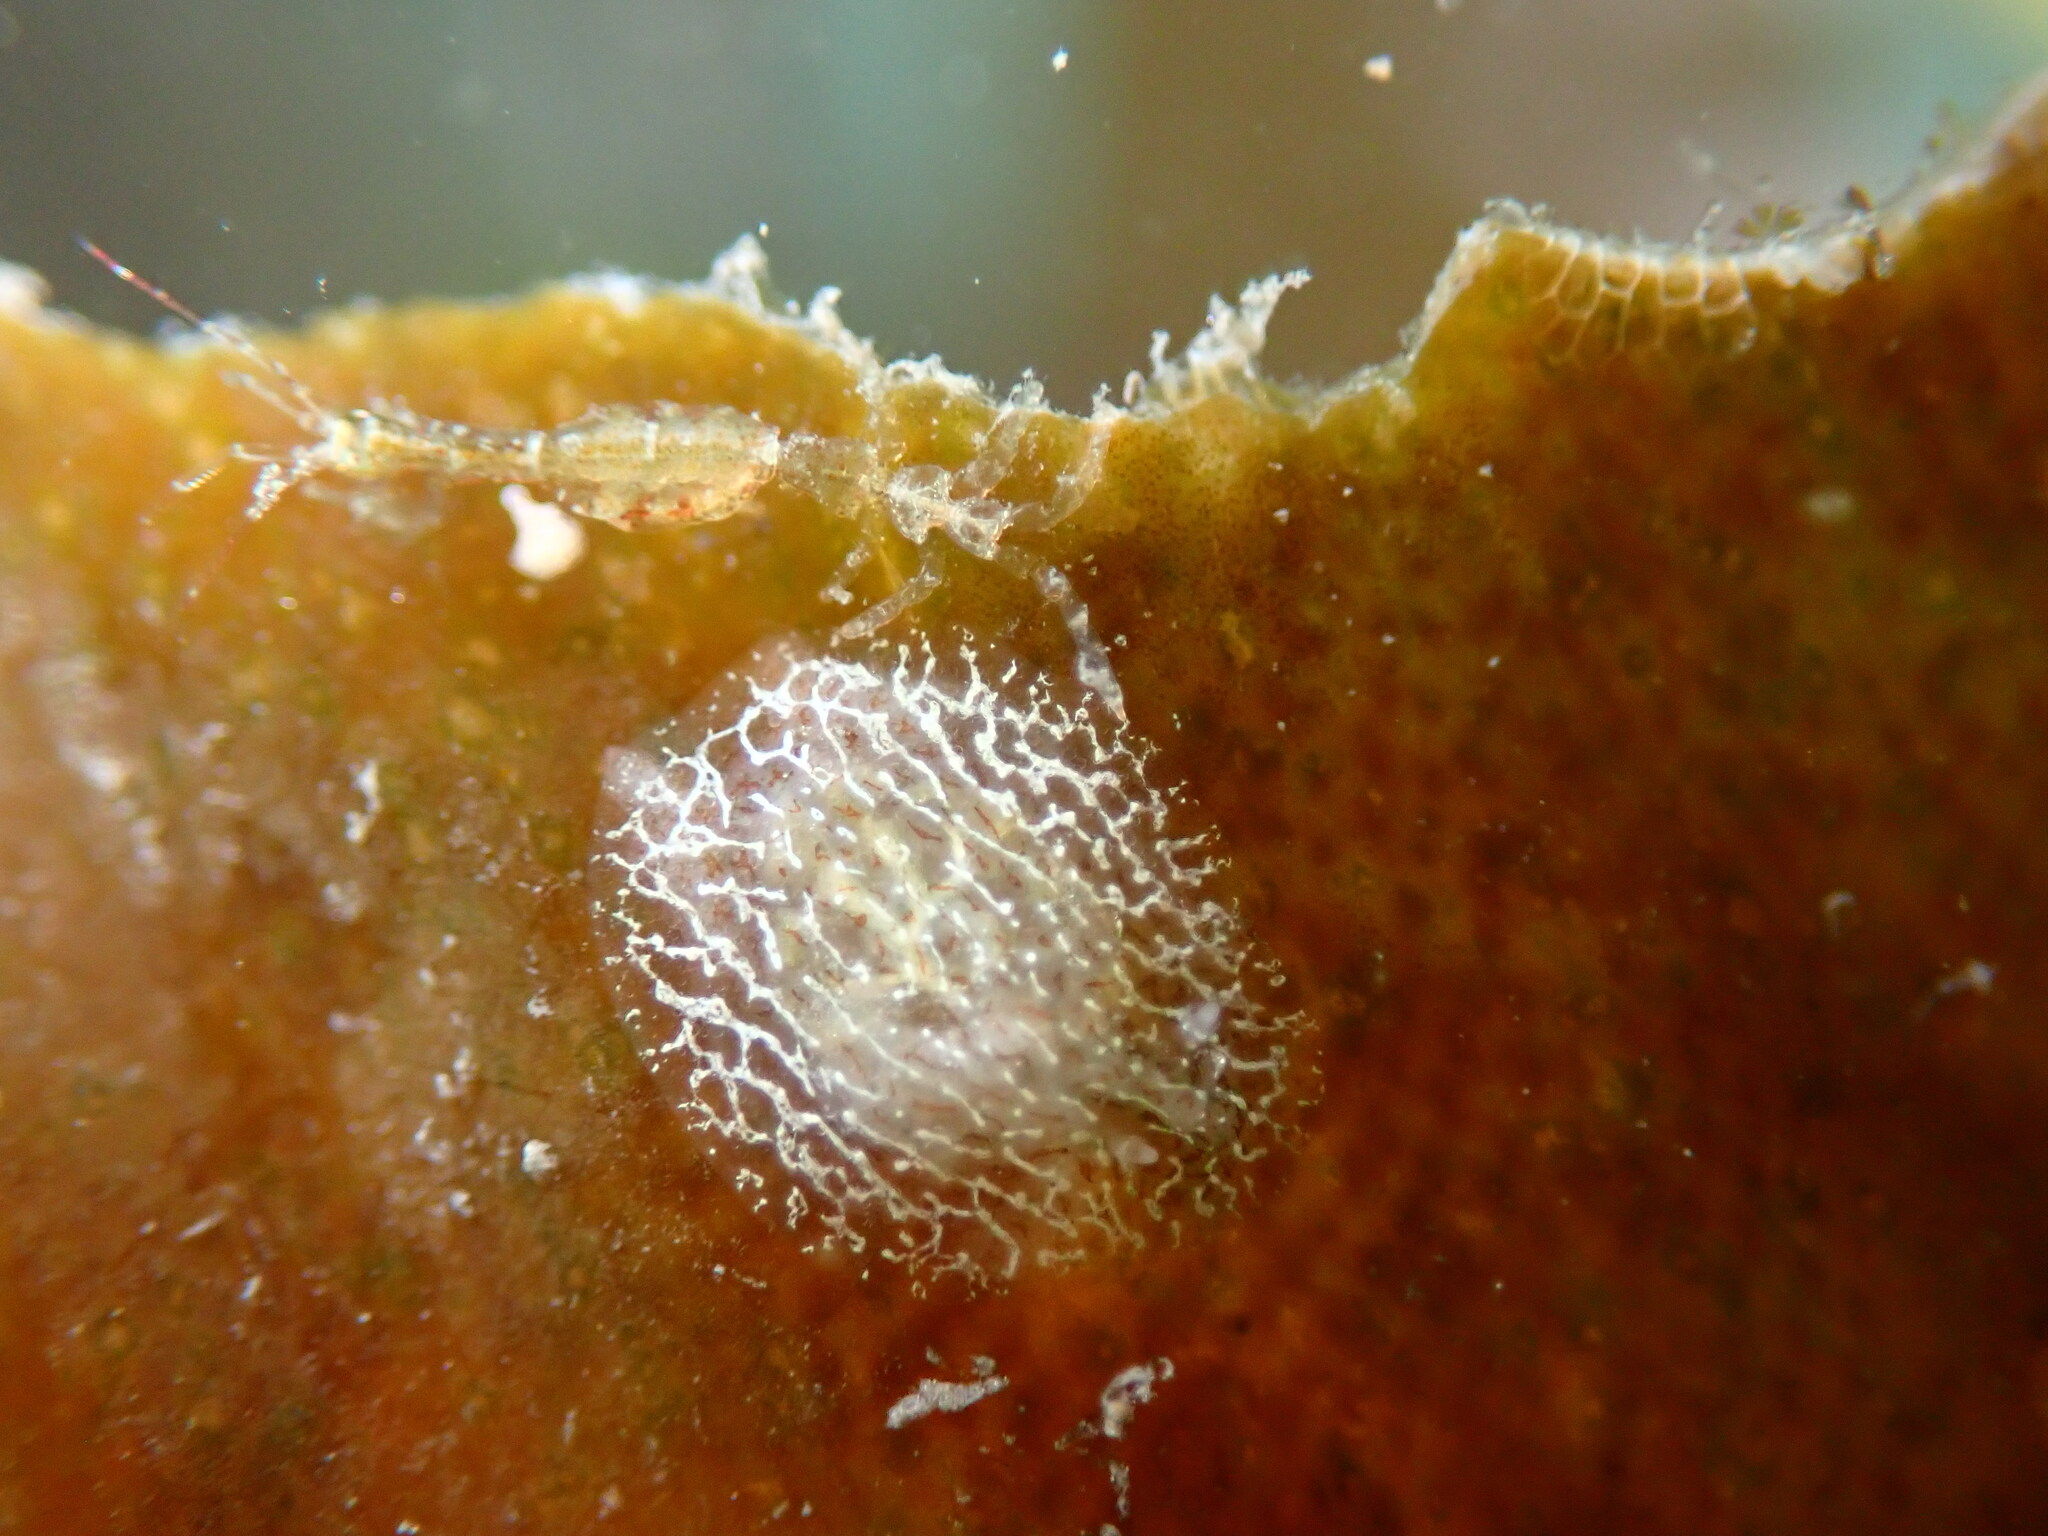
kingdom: Animalia
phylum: Mollusca
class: Gastropoda
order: Nudibranchia
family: Corambidae
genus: Corambe
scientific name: Corambe steinbergae
